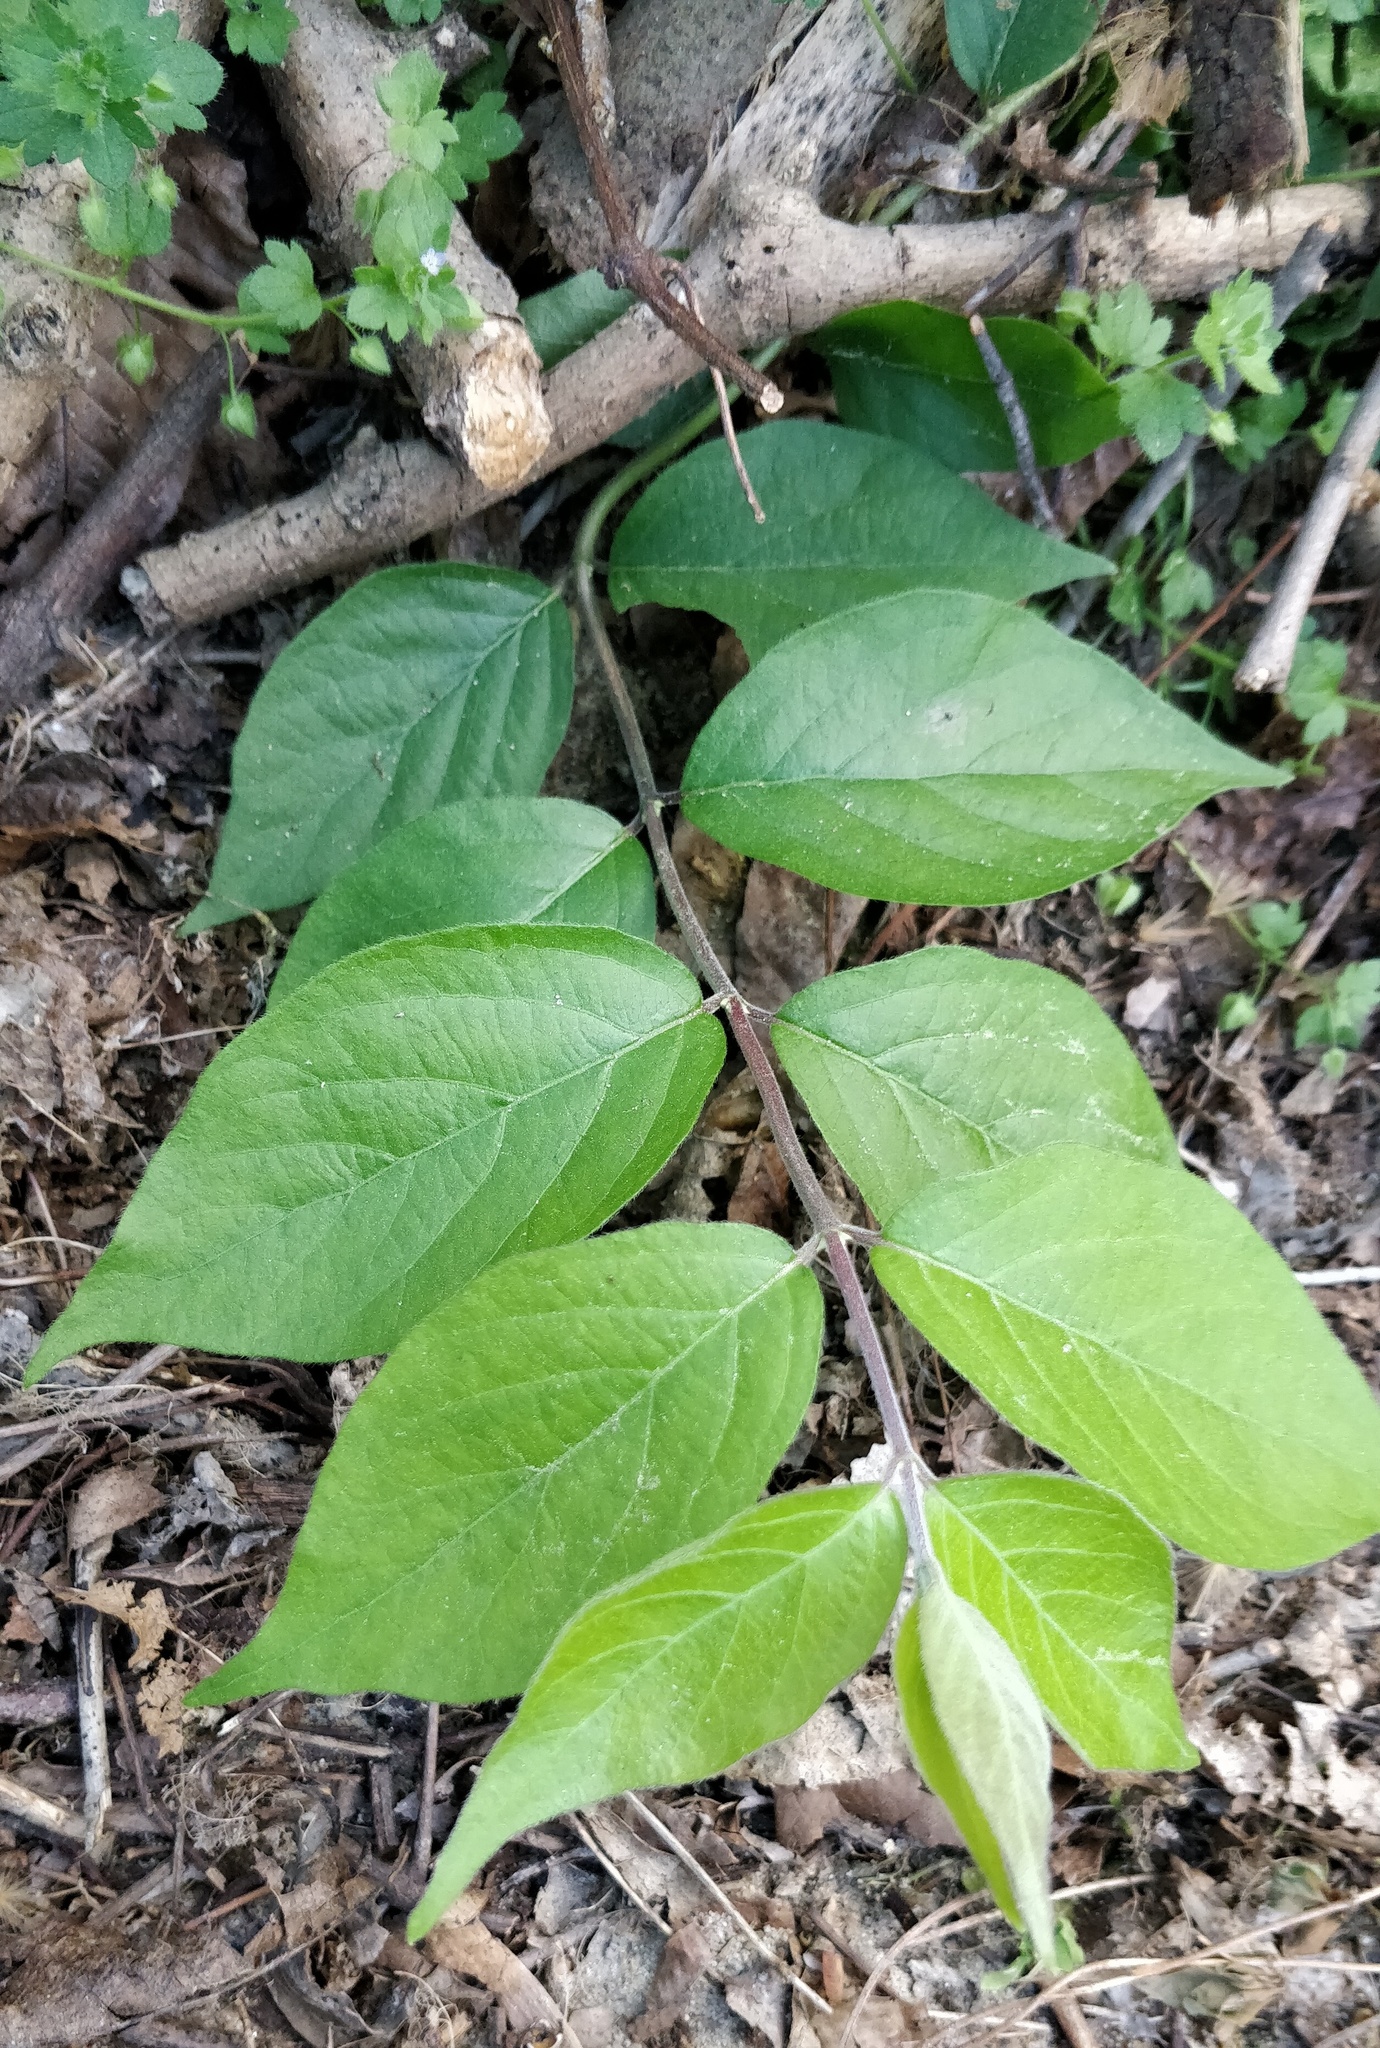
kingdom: Plantae
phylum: Tracheophyta
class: Magnoliopsida
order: Dipsacales
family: Caprifoliaceae
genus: Lonicera
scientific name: Lonicera maackii
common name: Amur honeysuckle
